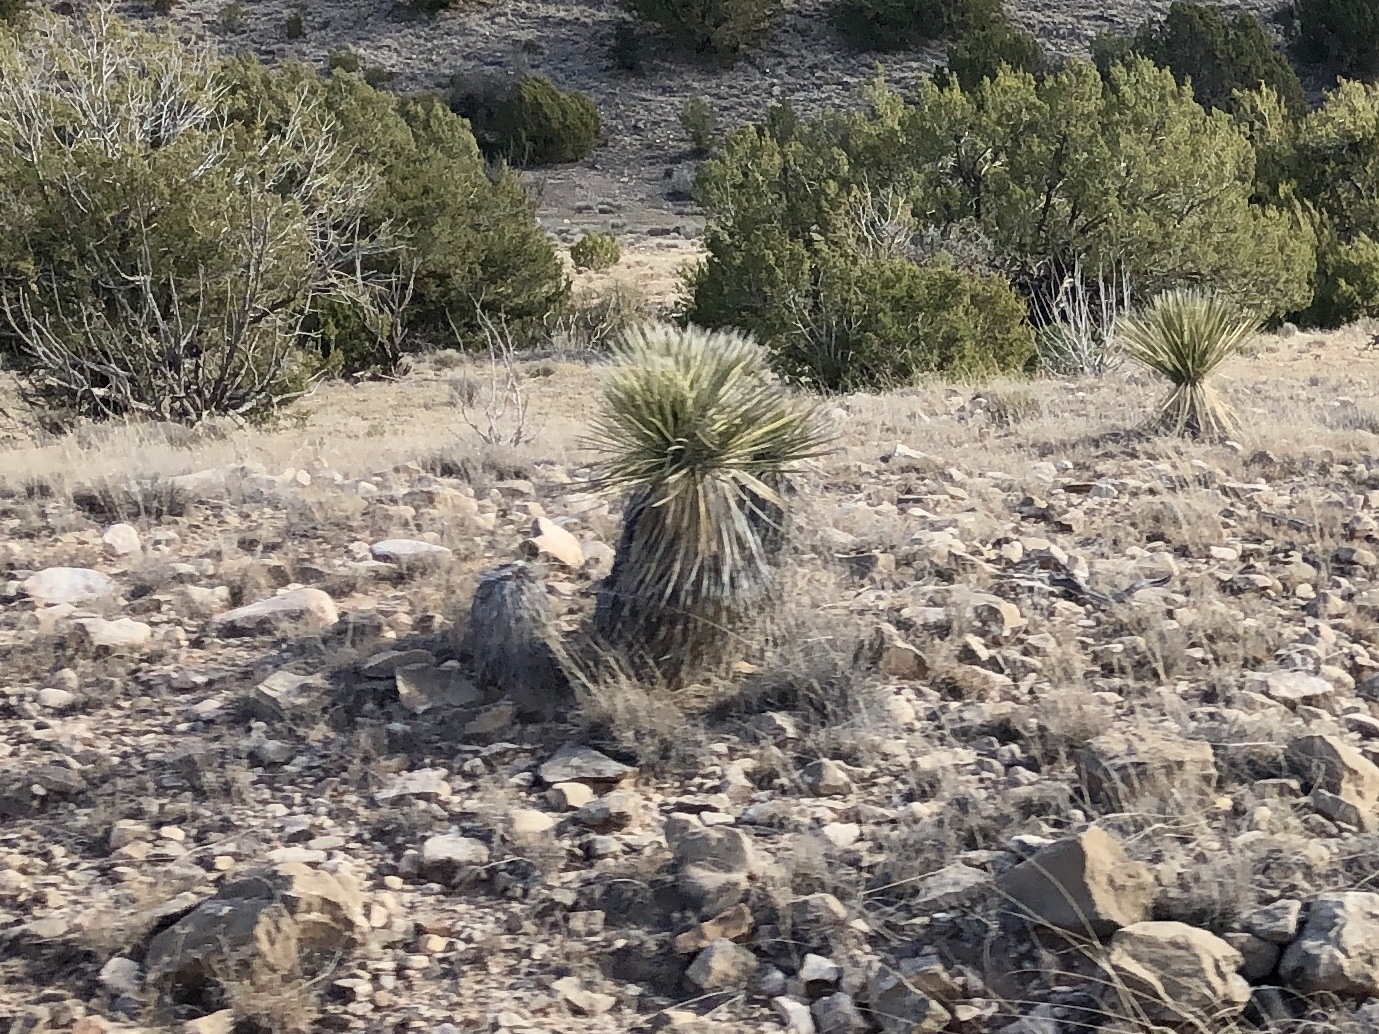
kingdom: Plantae
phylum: Tracheophyta
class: Liliopsida
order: Asparagales
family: Asparagaceae
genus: Yucca
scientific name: Yucca elata
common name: Palmella
